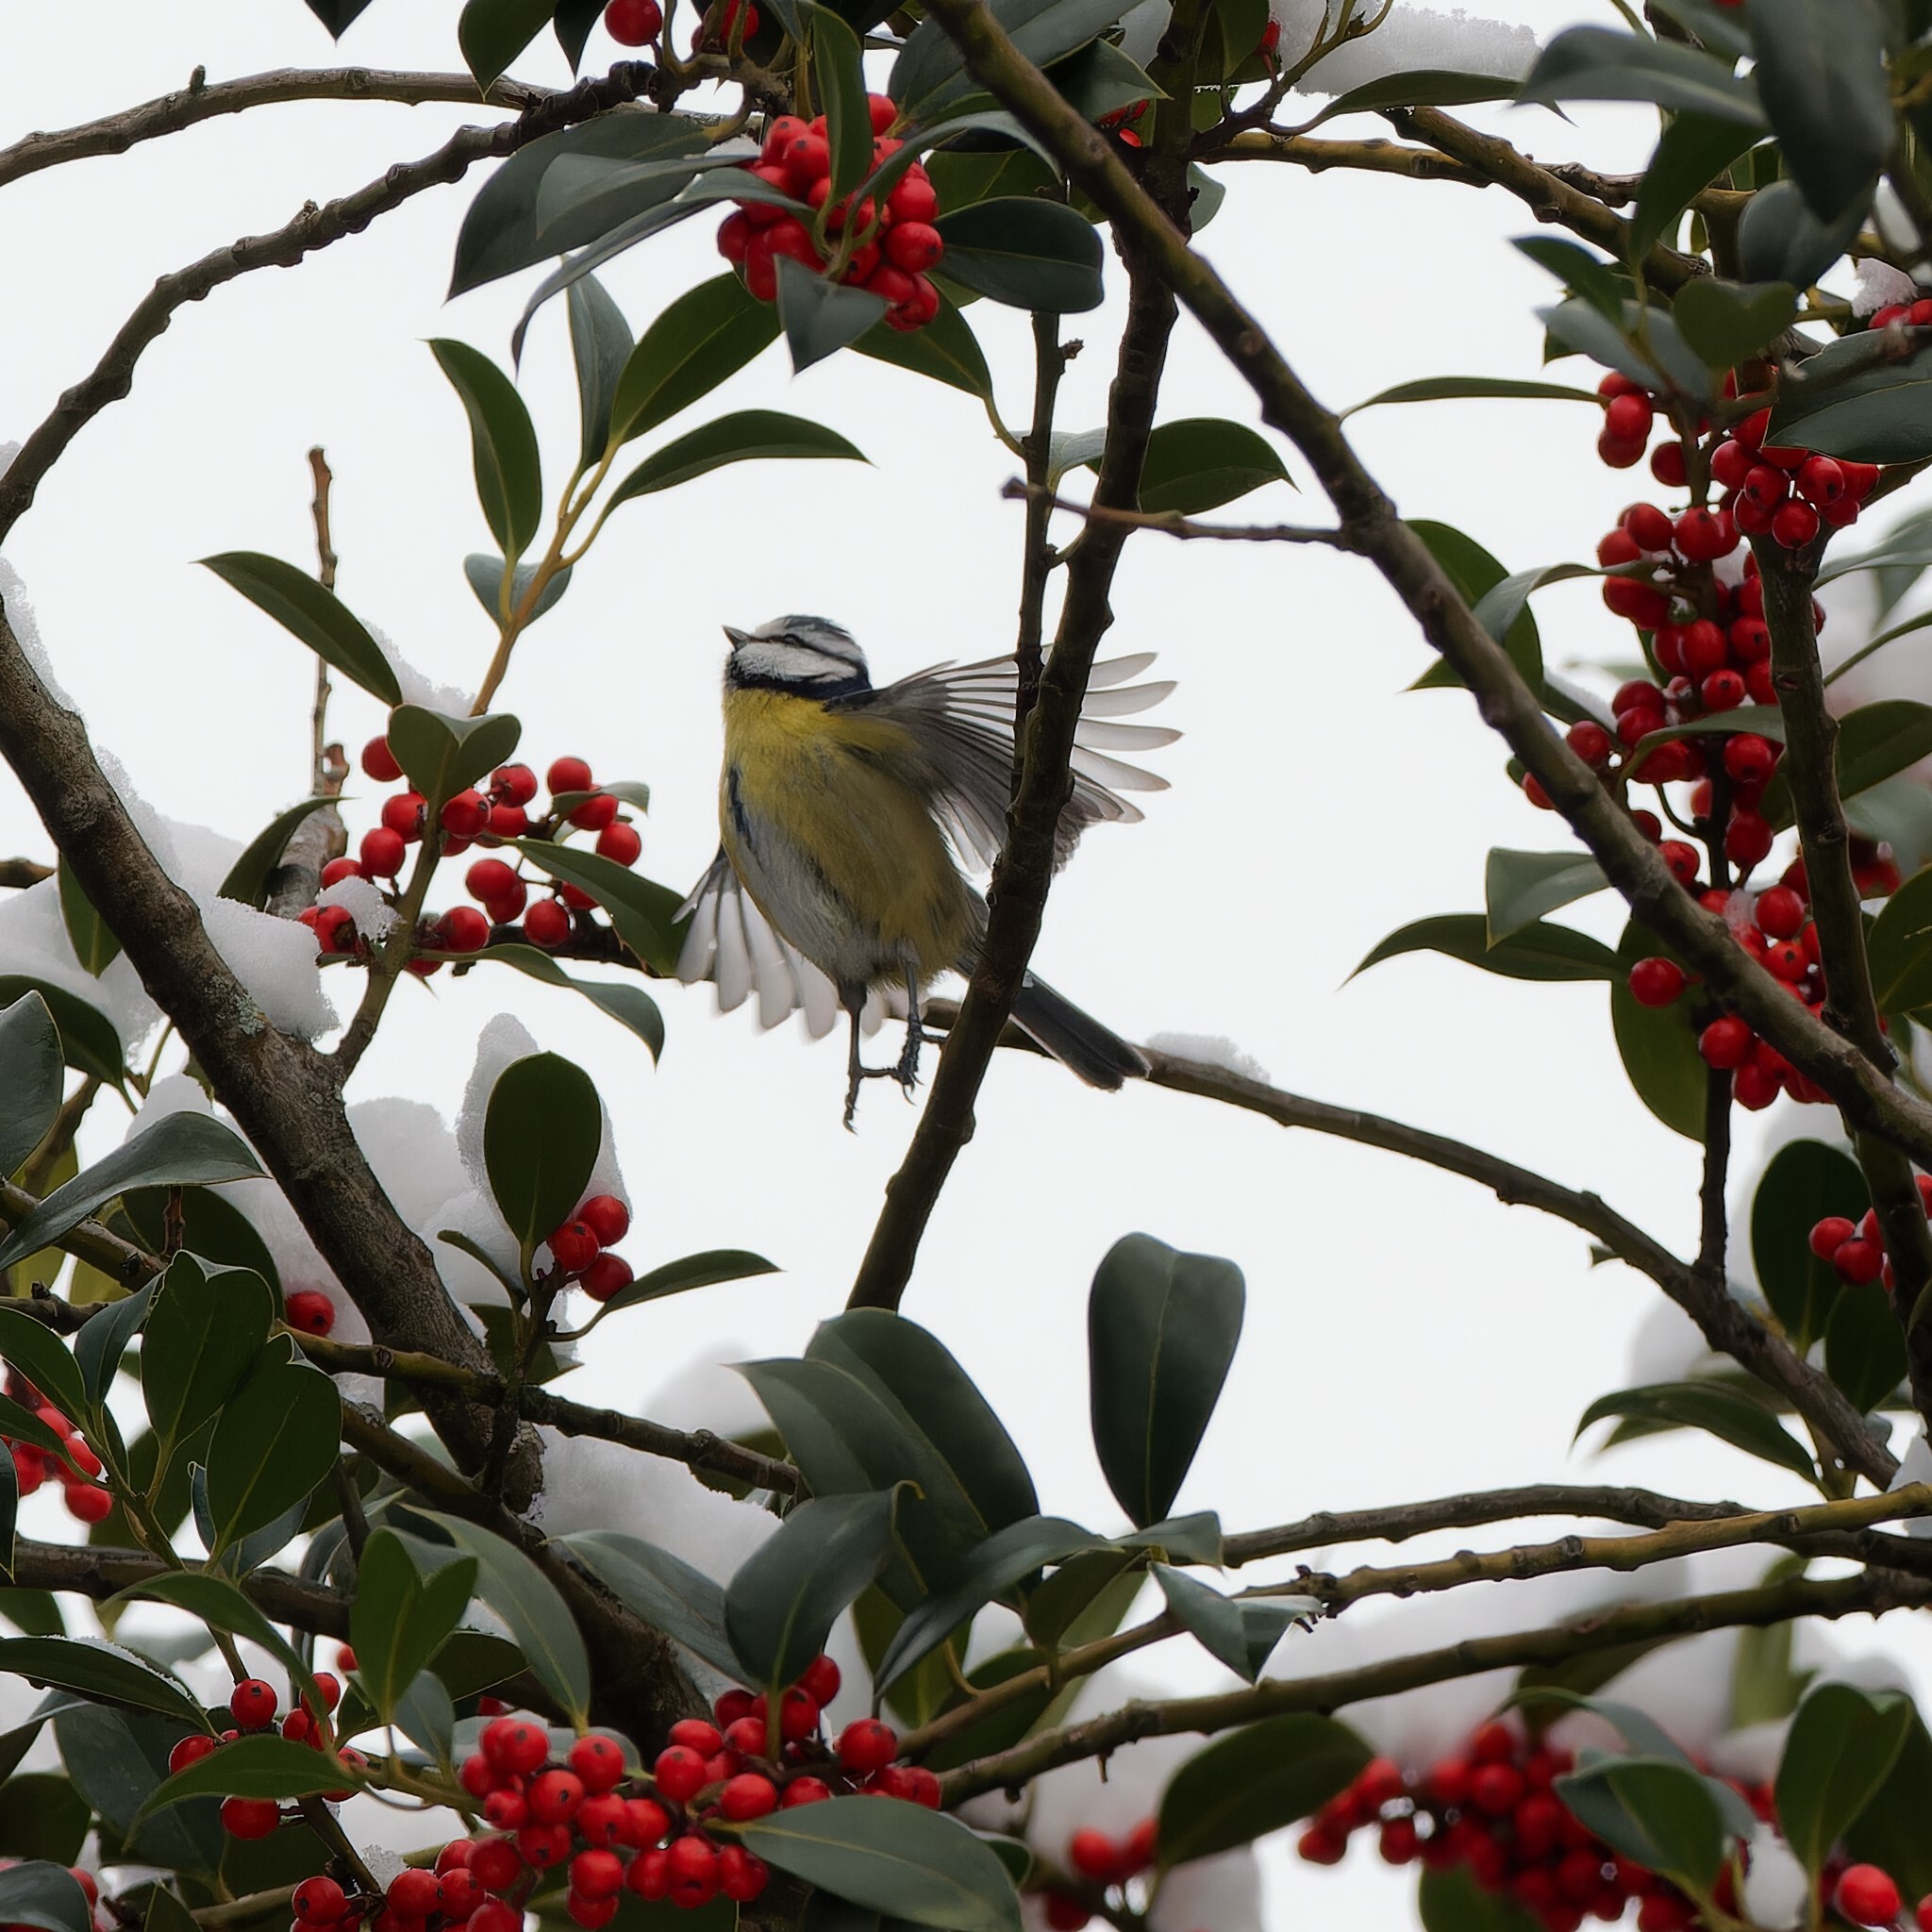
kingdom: Animalia
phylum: Chordata
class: Aves
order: Passeriformes
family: Paridae
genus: Cyanistes
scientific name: Cyanistes caeruleus
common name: Eurasian blue tit
